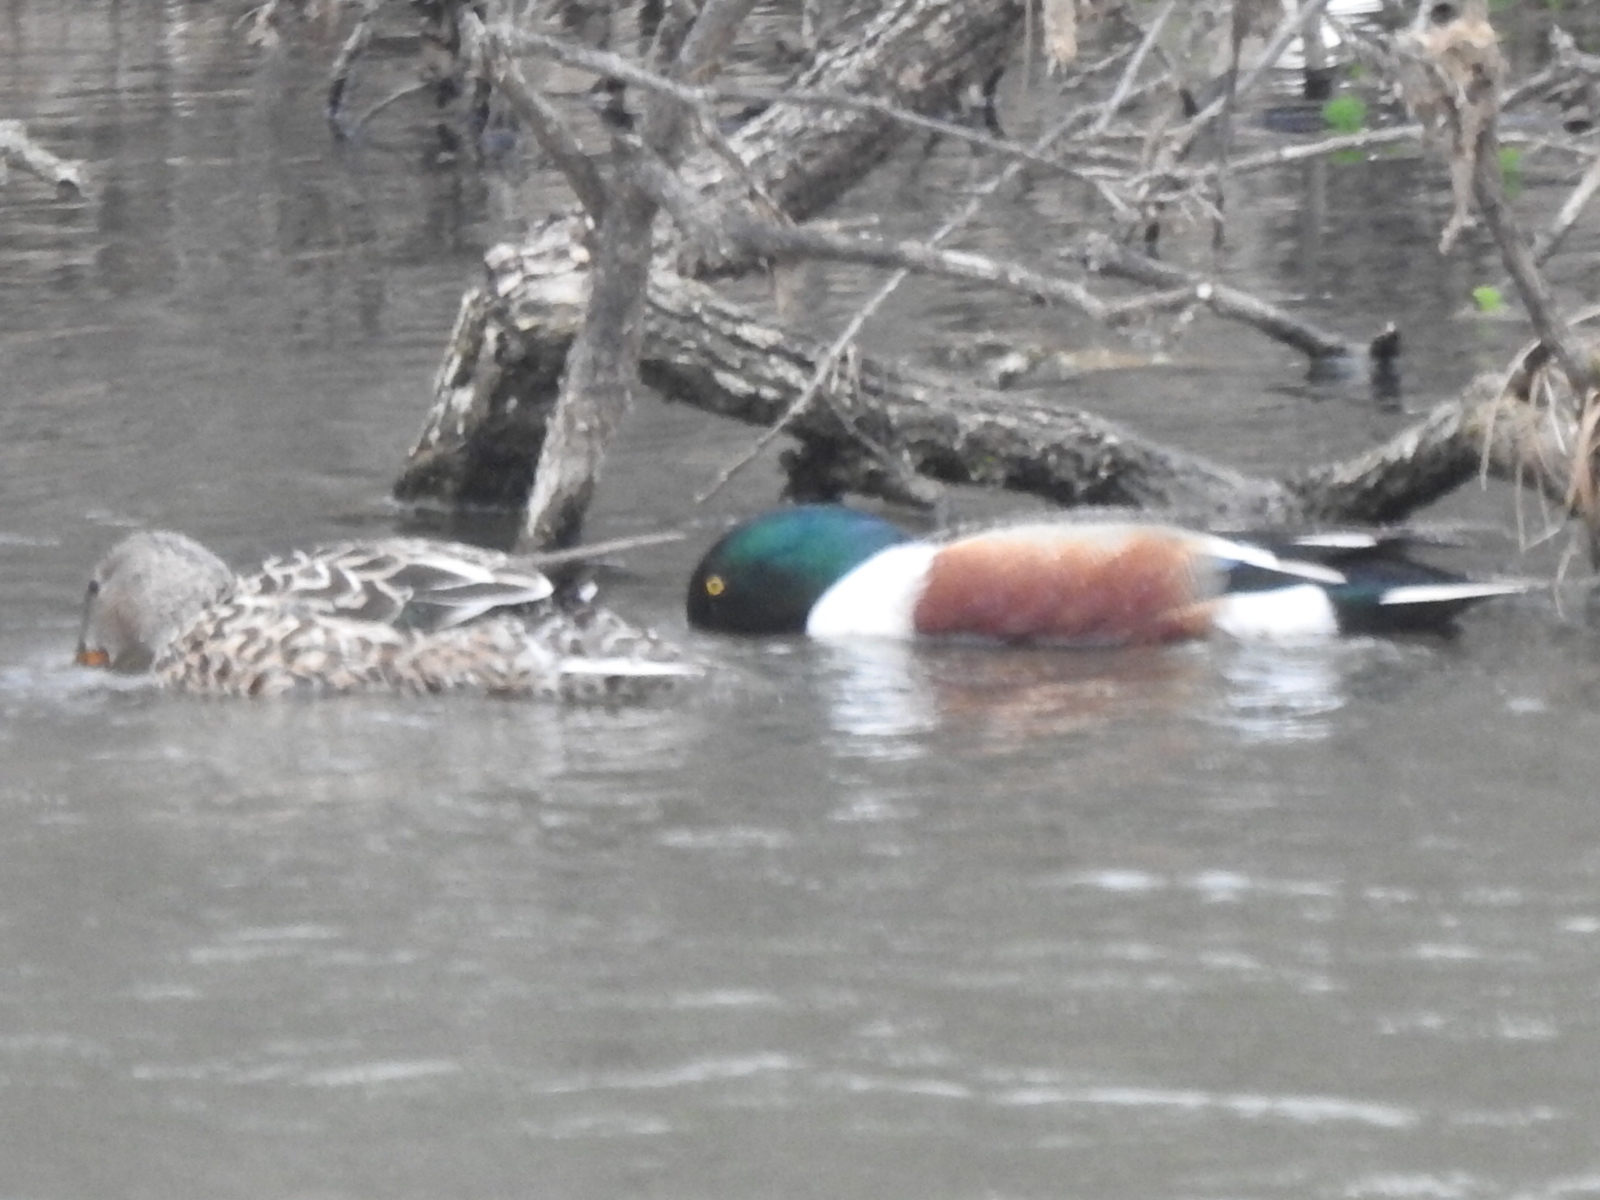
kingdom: Animalia
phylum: Chordata
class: Aves
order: Anseriformes
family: Anatidae
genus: Spatula
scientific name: Spatula clypeata
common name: Northern shoveler
